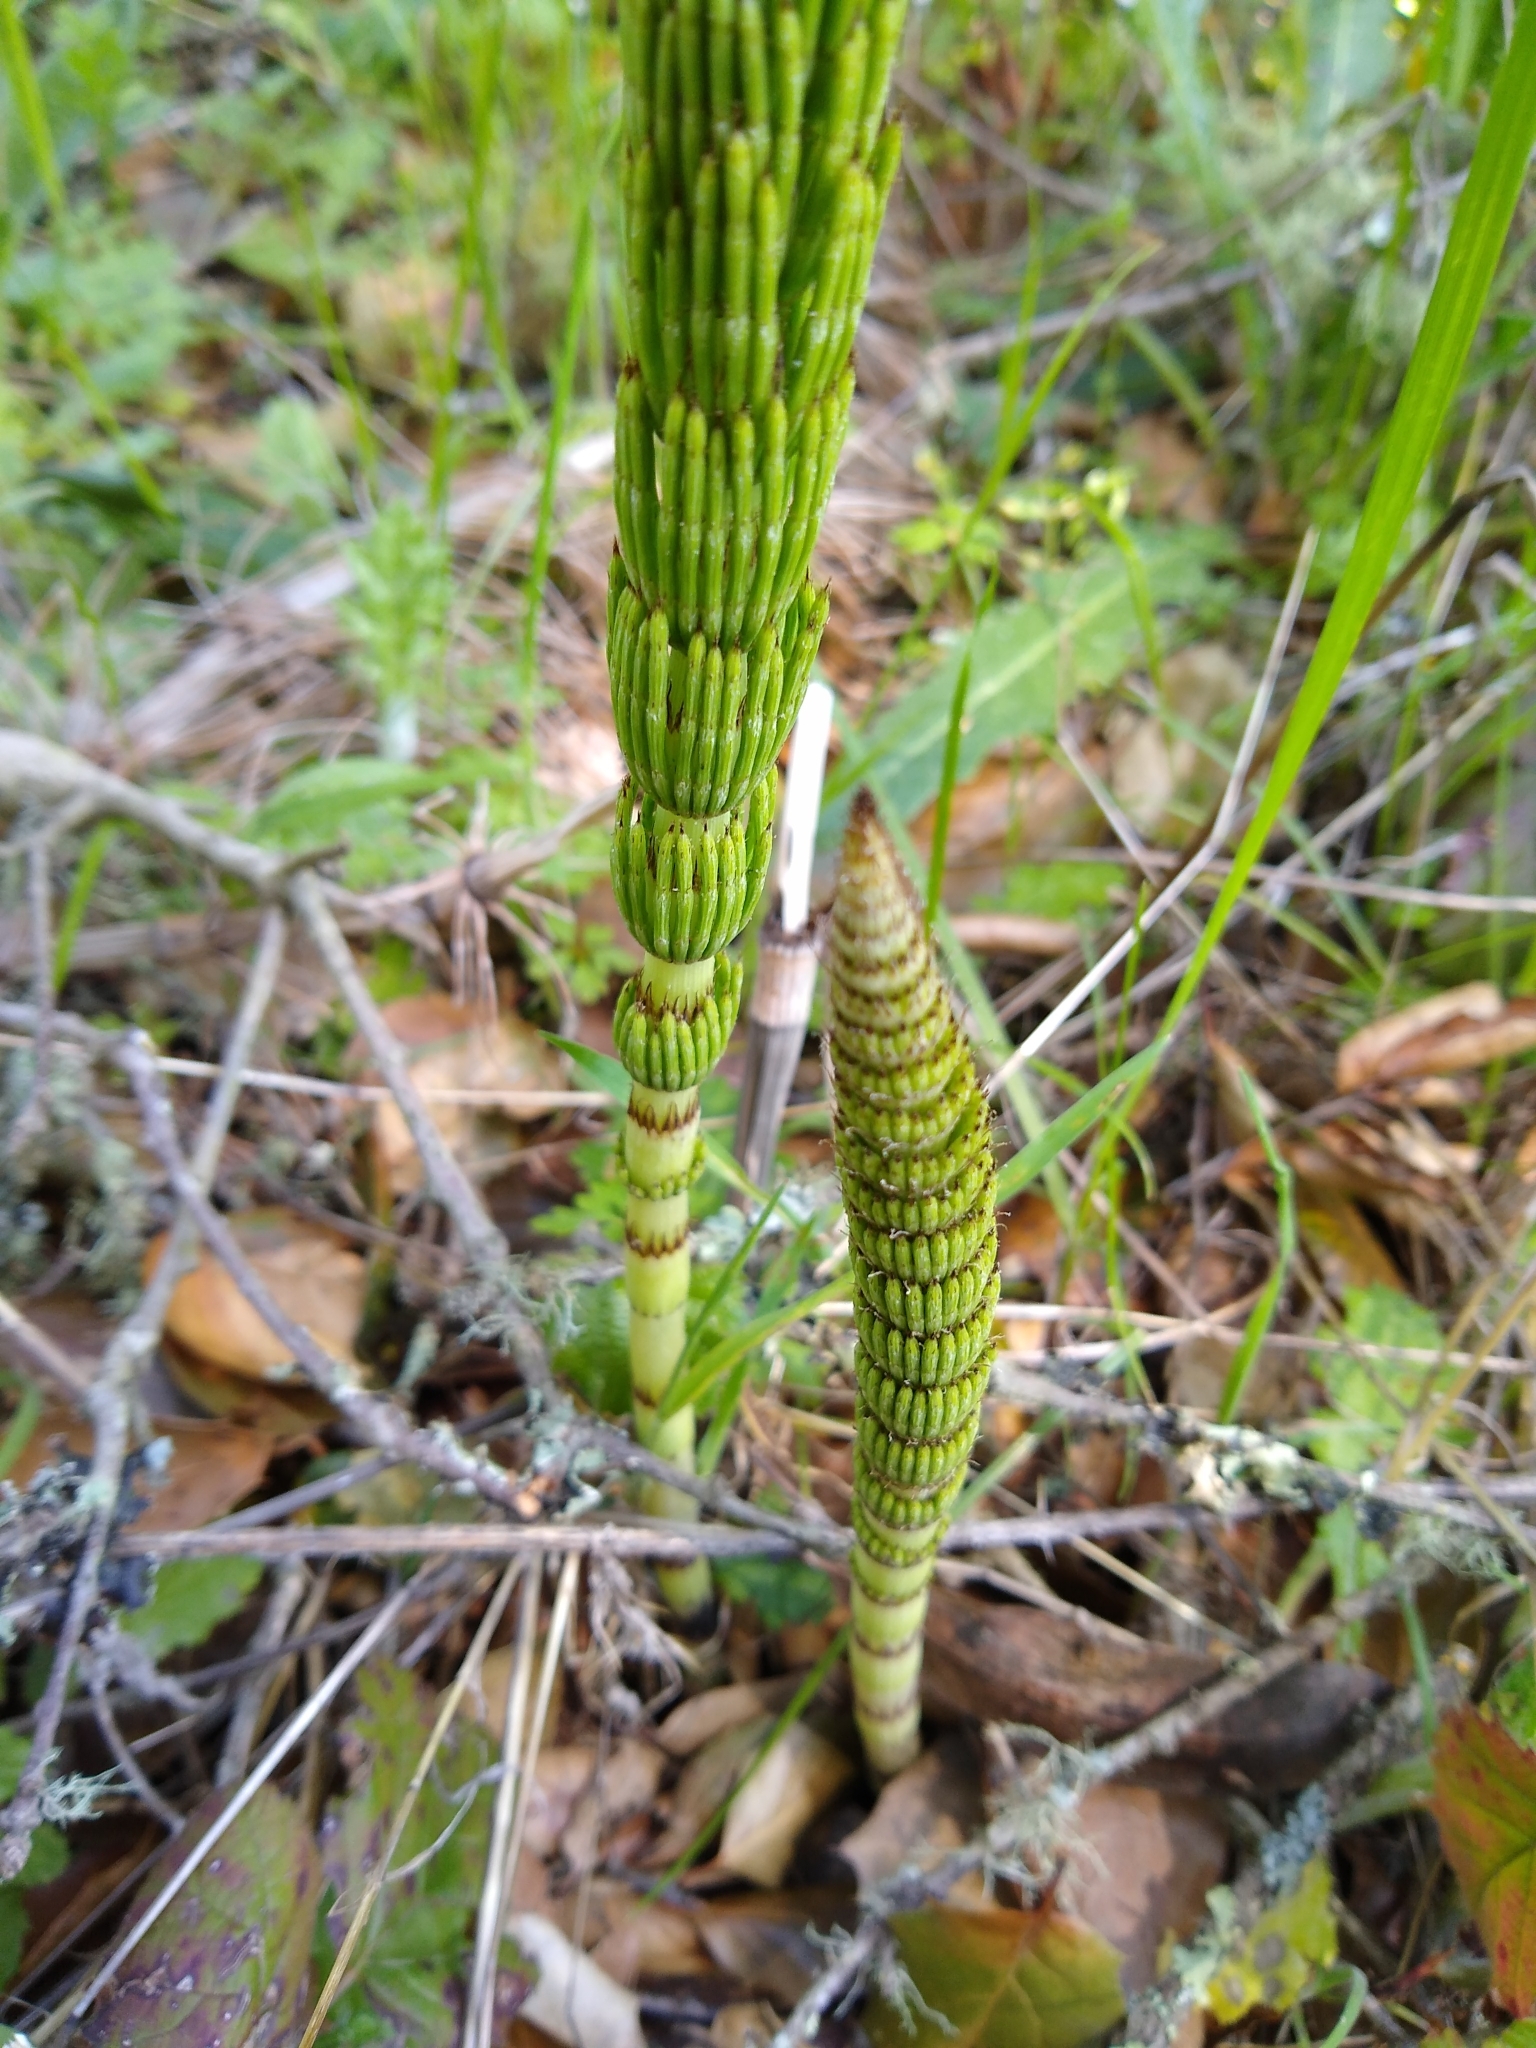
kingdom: Plantae
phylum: Tracheophyta
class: Polypodiopsida
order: Equisetales
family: Equisetaceae
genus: Equisetum
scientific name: Equisetum braunii
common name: Braun's horsetail
